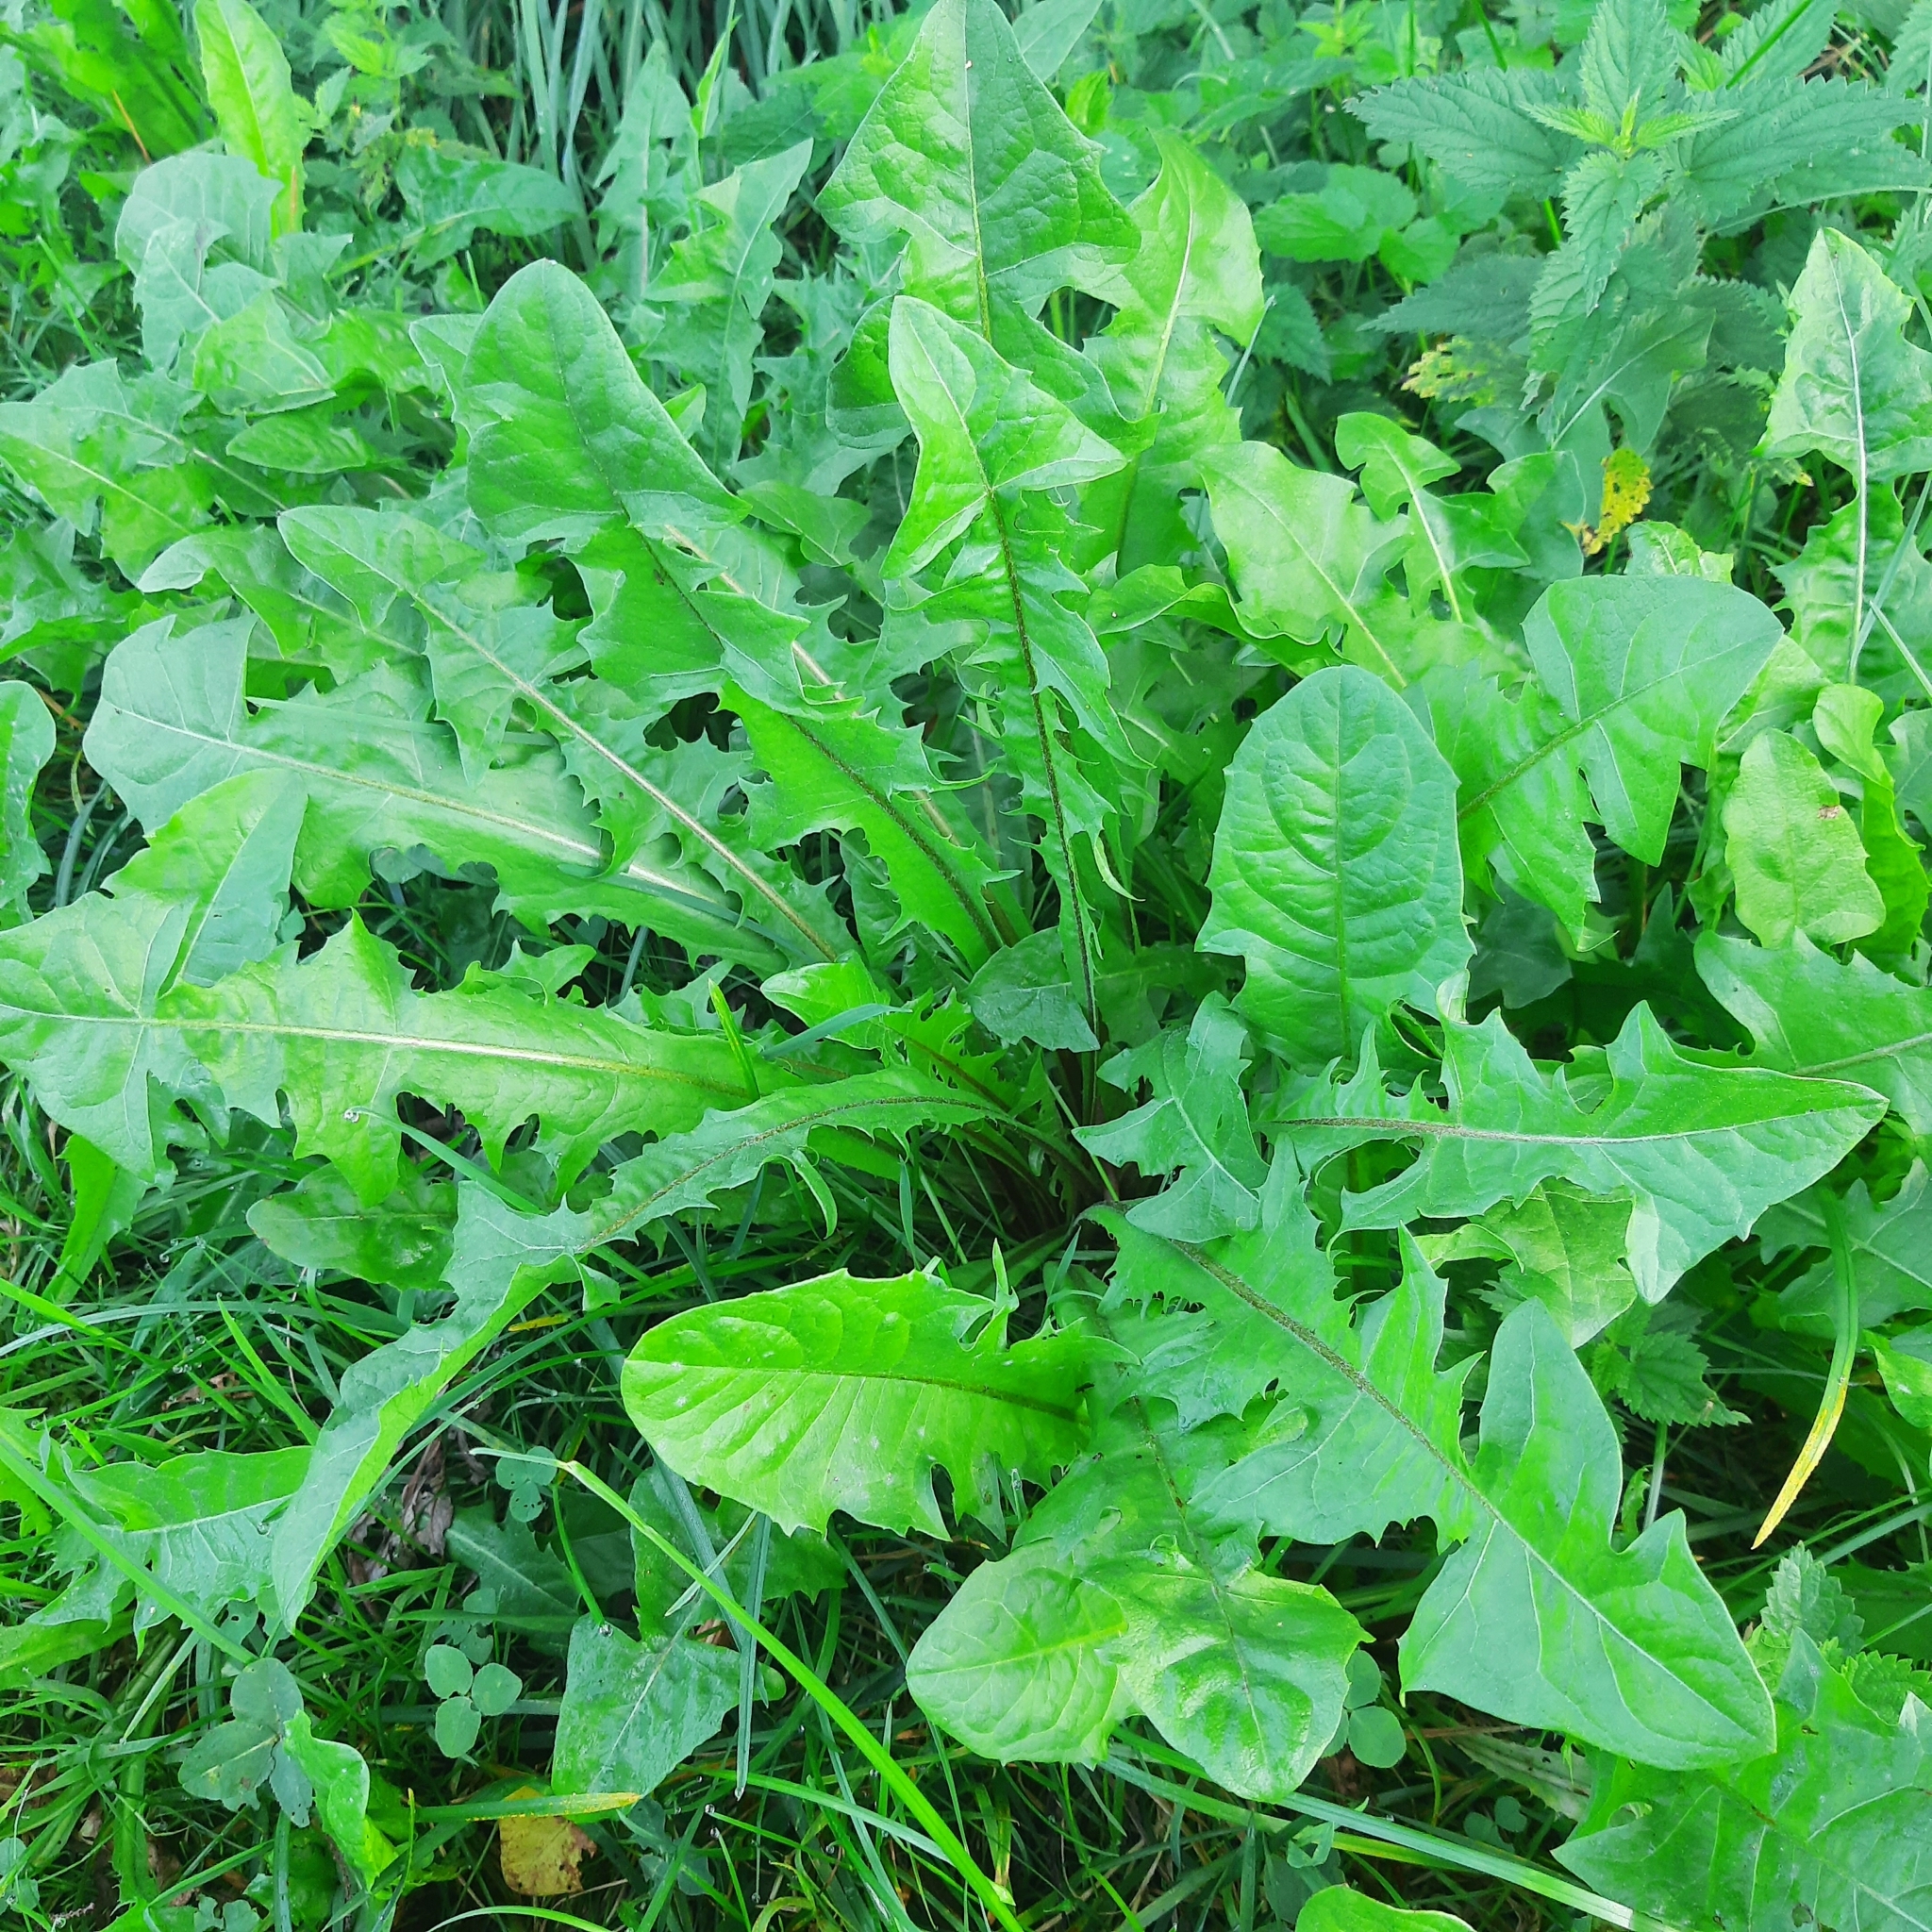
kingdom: Plantae
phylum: Tracheophyta
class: Magnoliopsida
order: Asterales
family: Asteraceae
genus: Taraxacum
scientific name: Taraxacum
